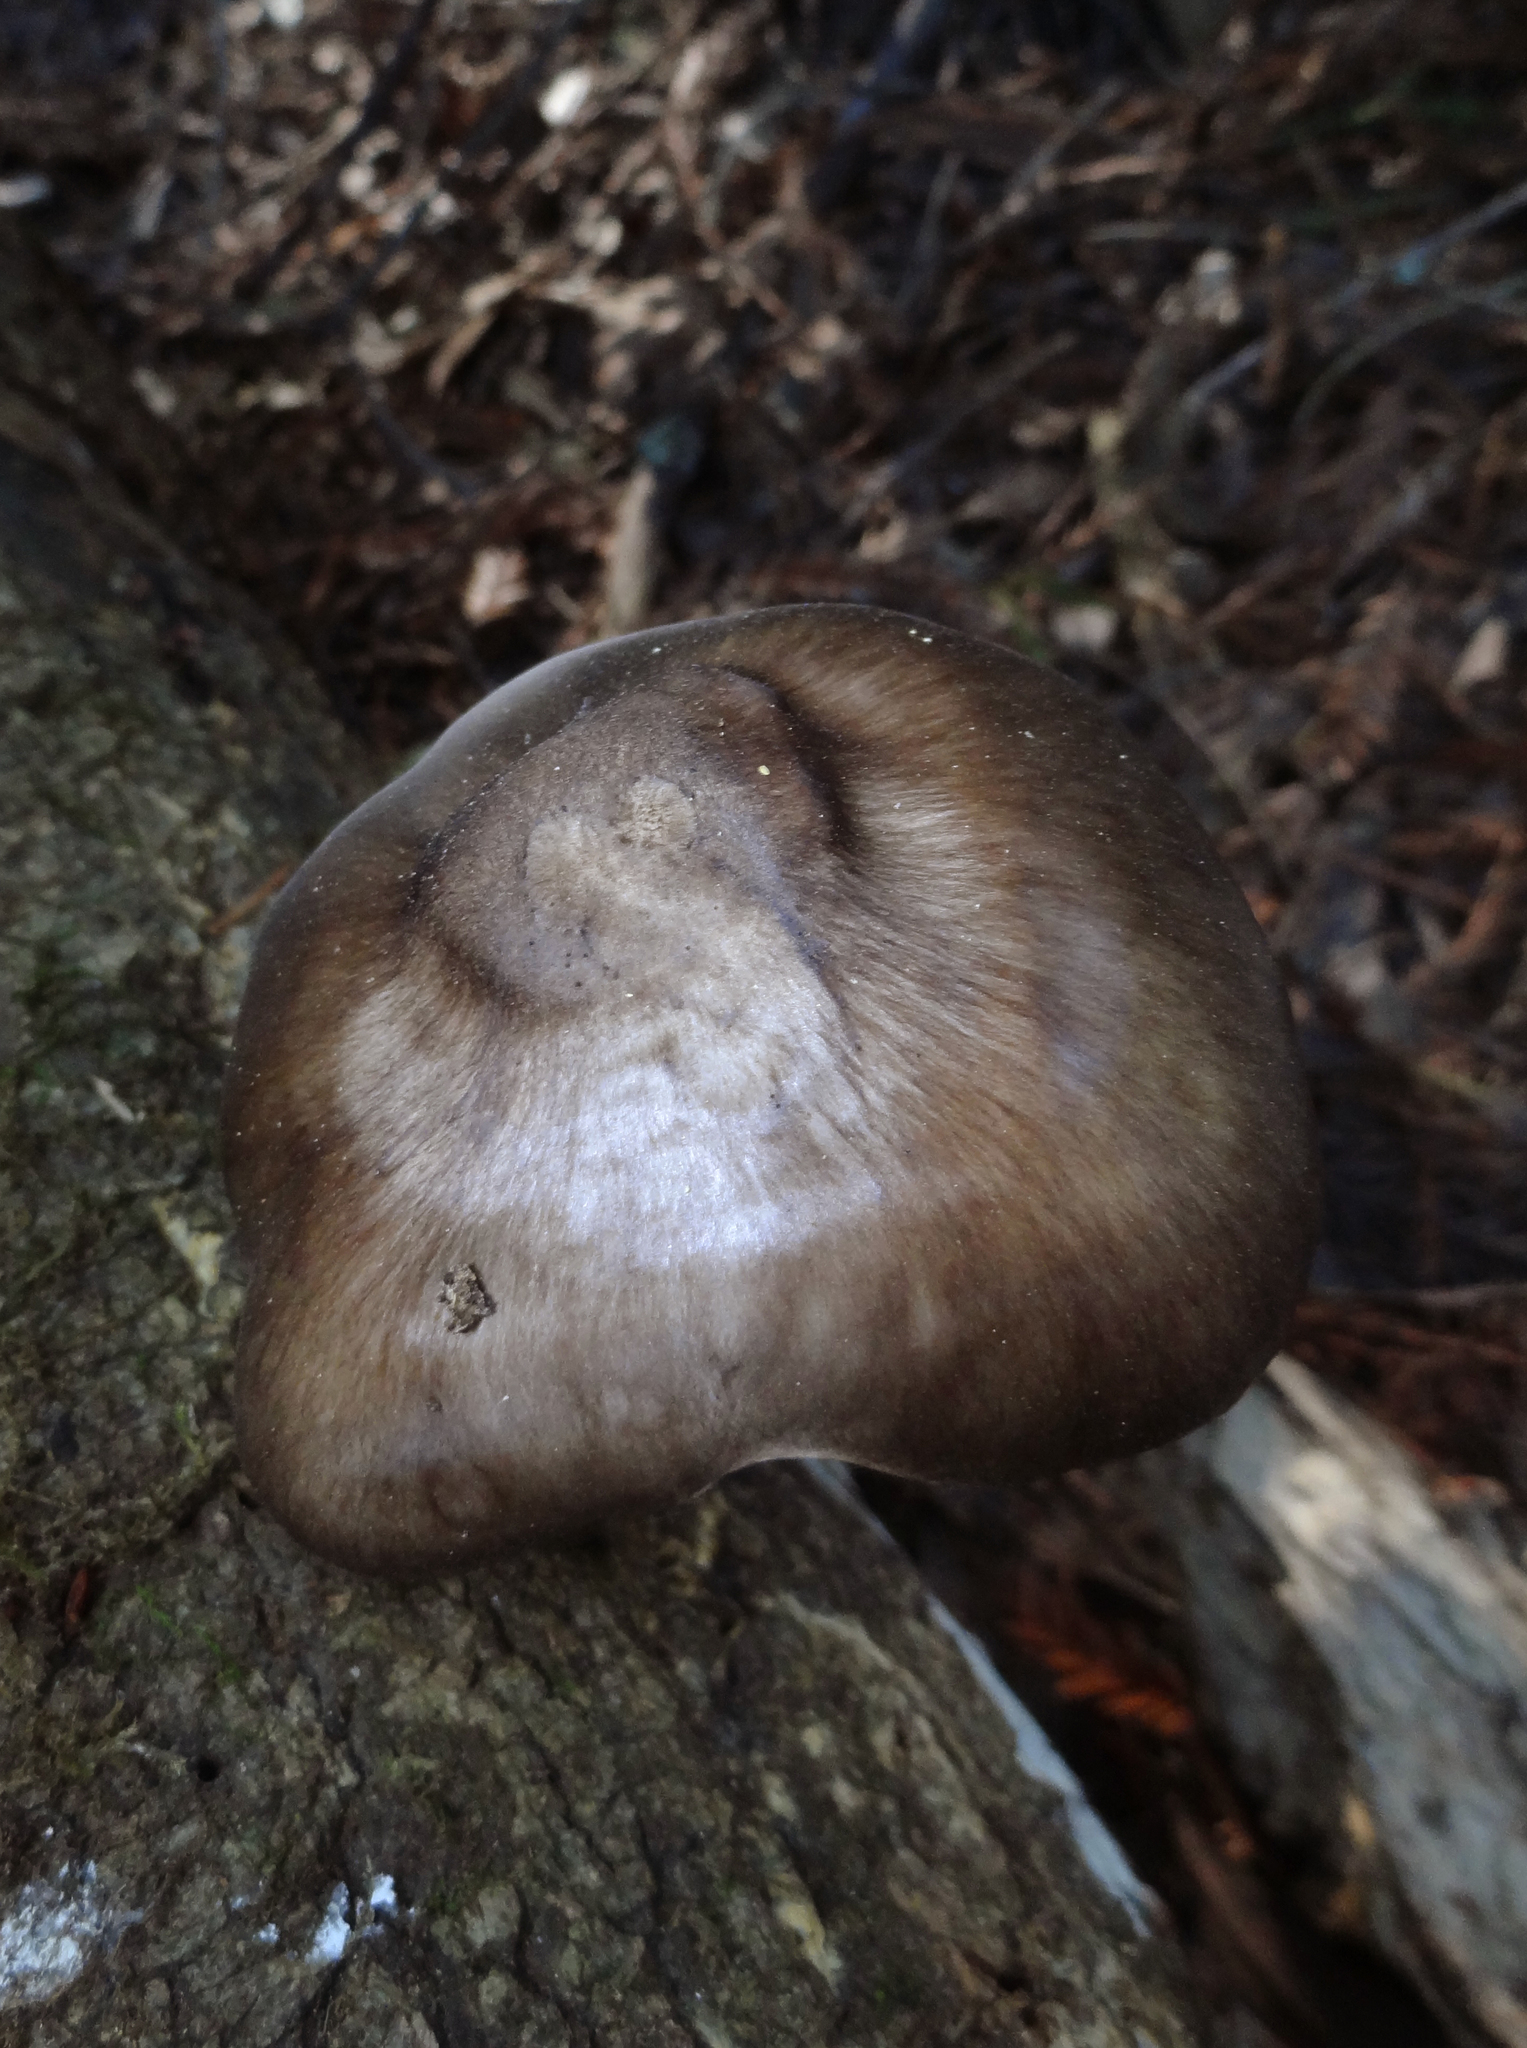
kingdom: Fungi
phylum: Basidiomycota
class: Agaricomycetes
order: Agaricales
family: Pluteaceae
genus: Pluteus
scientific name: Pluteus exilis
